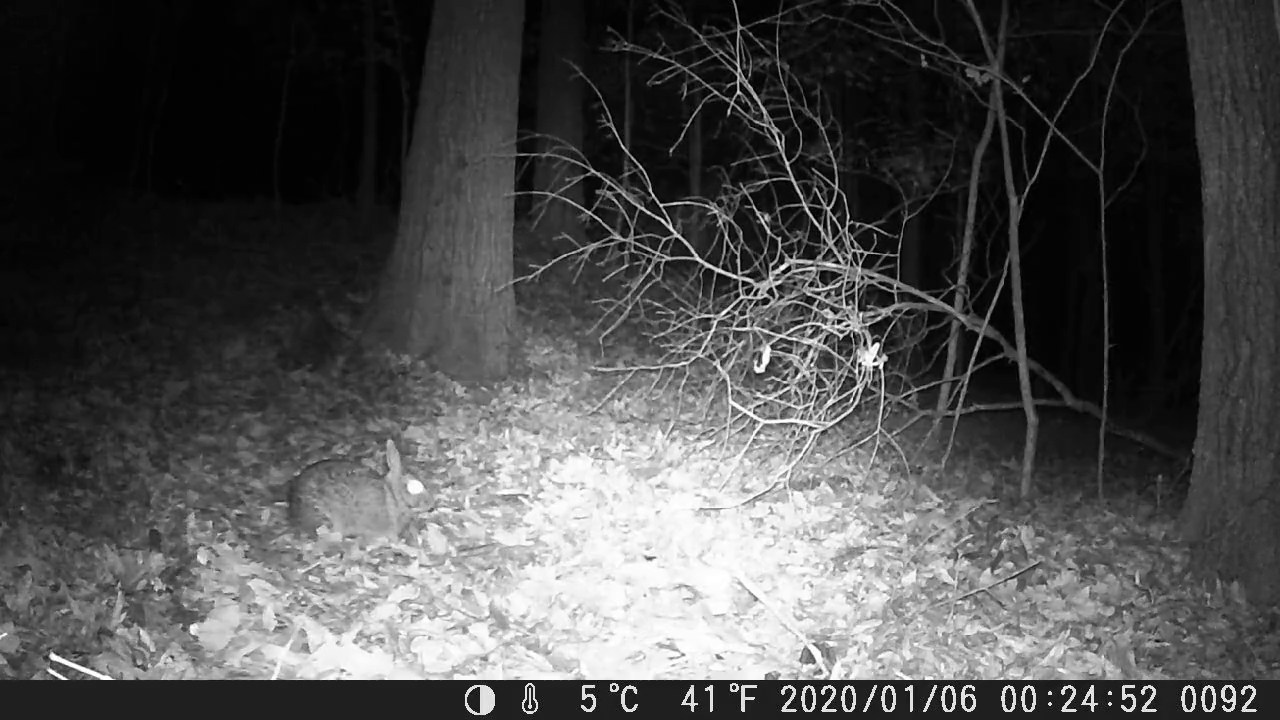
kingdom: Animalia
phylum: Chordata
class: Mammalia
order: Lagomorpha
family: Leporidae
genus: Sylvilagus
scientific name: Sylvilagus floridanus
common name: Eastern cottontail
